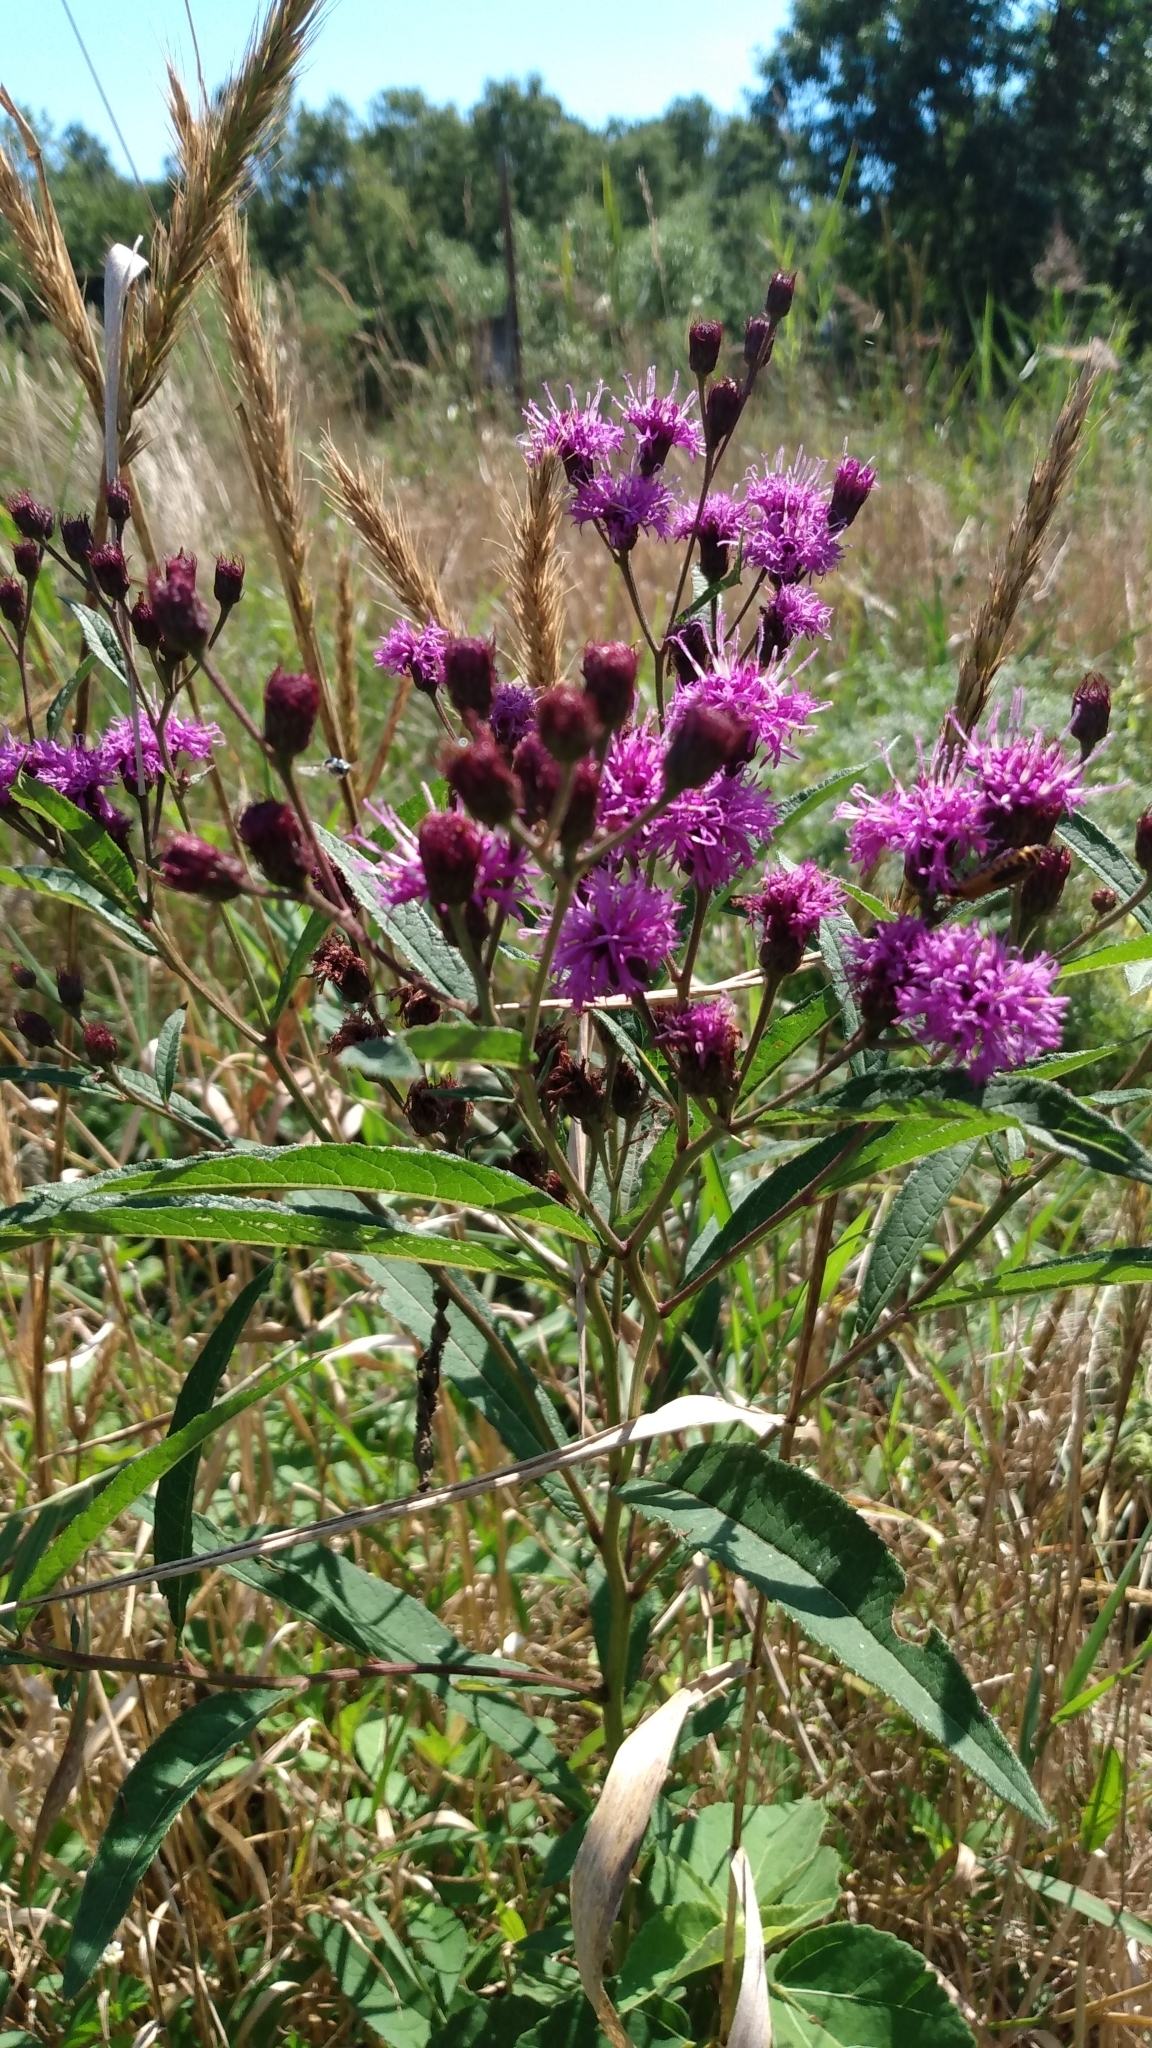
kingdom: Plantae
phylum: Tracheophyta
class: Magnoliopsida
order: Asterales
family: Asteraceae
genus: Vernonia
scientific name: Vernonia noveboracensis
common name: New york ironweed
